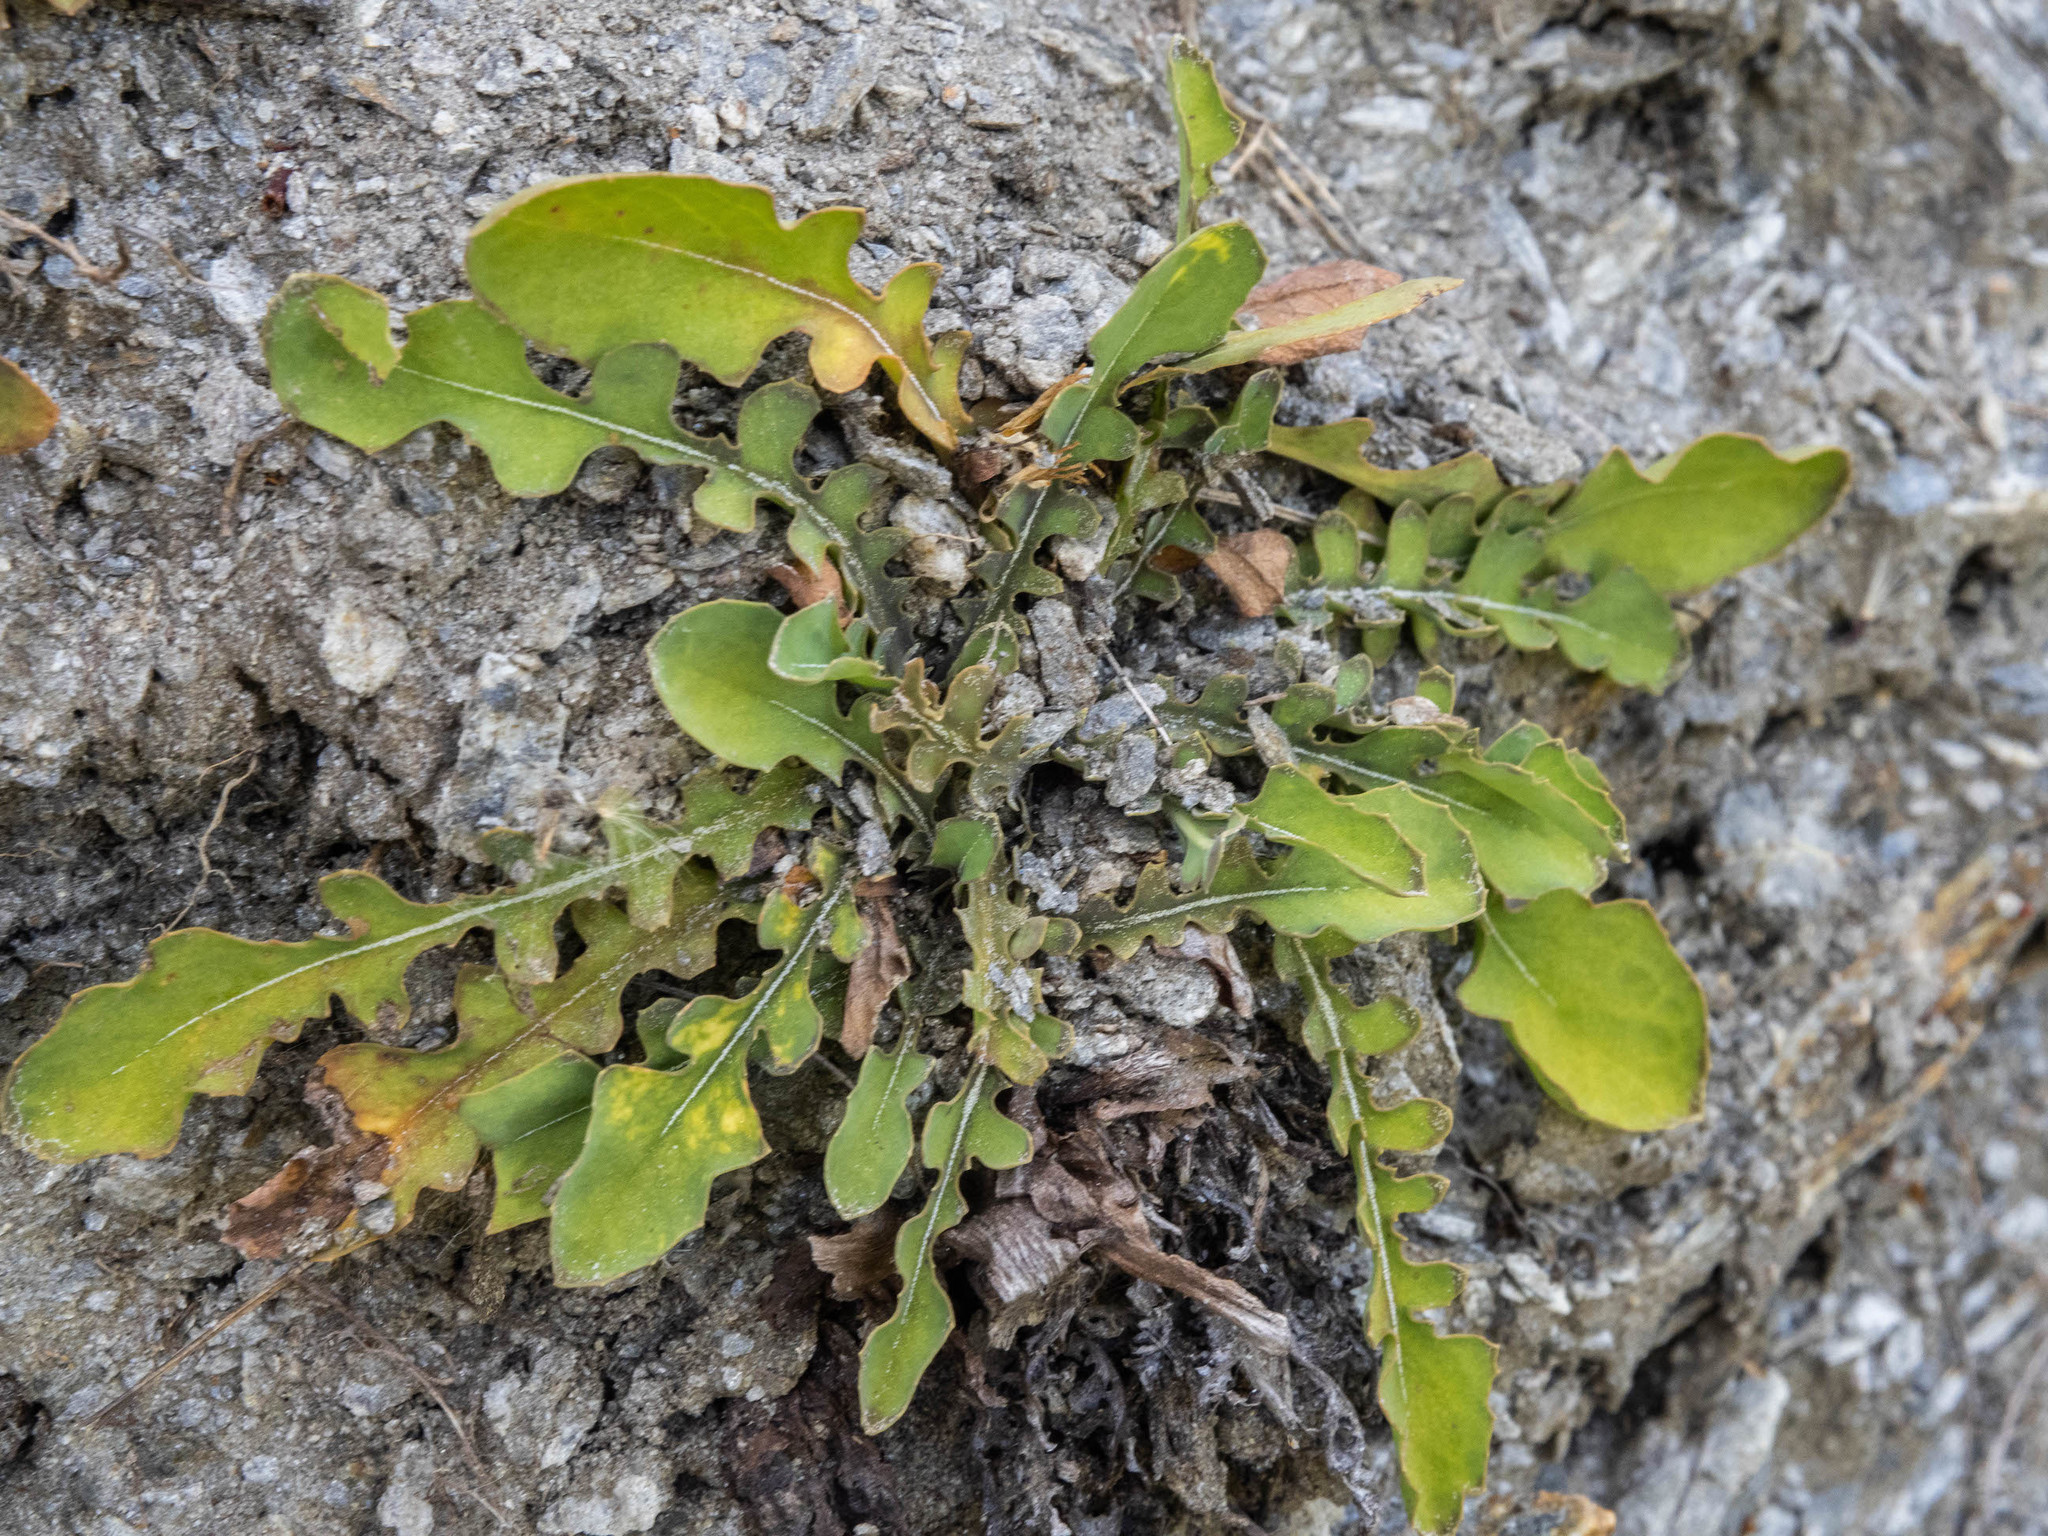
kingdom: Plantae
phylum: Tracheophyta
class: Magnoliopsida
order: Asterales
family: Asteraceae
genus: Sonchus
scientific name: Sonchus novae-zelandiae
